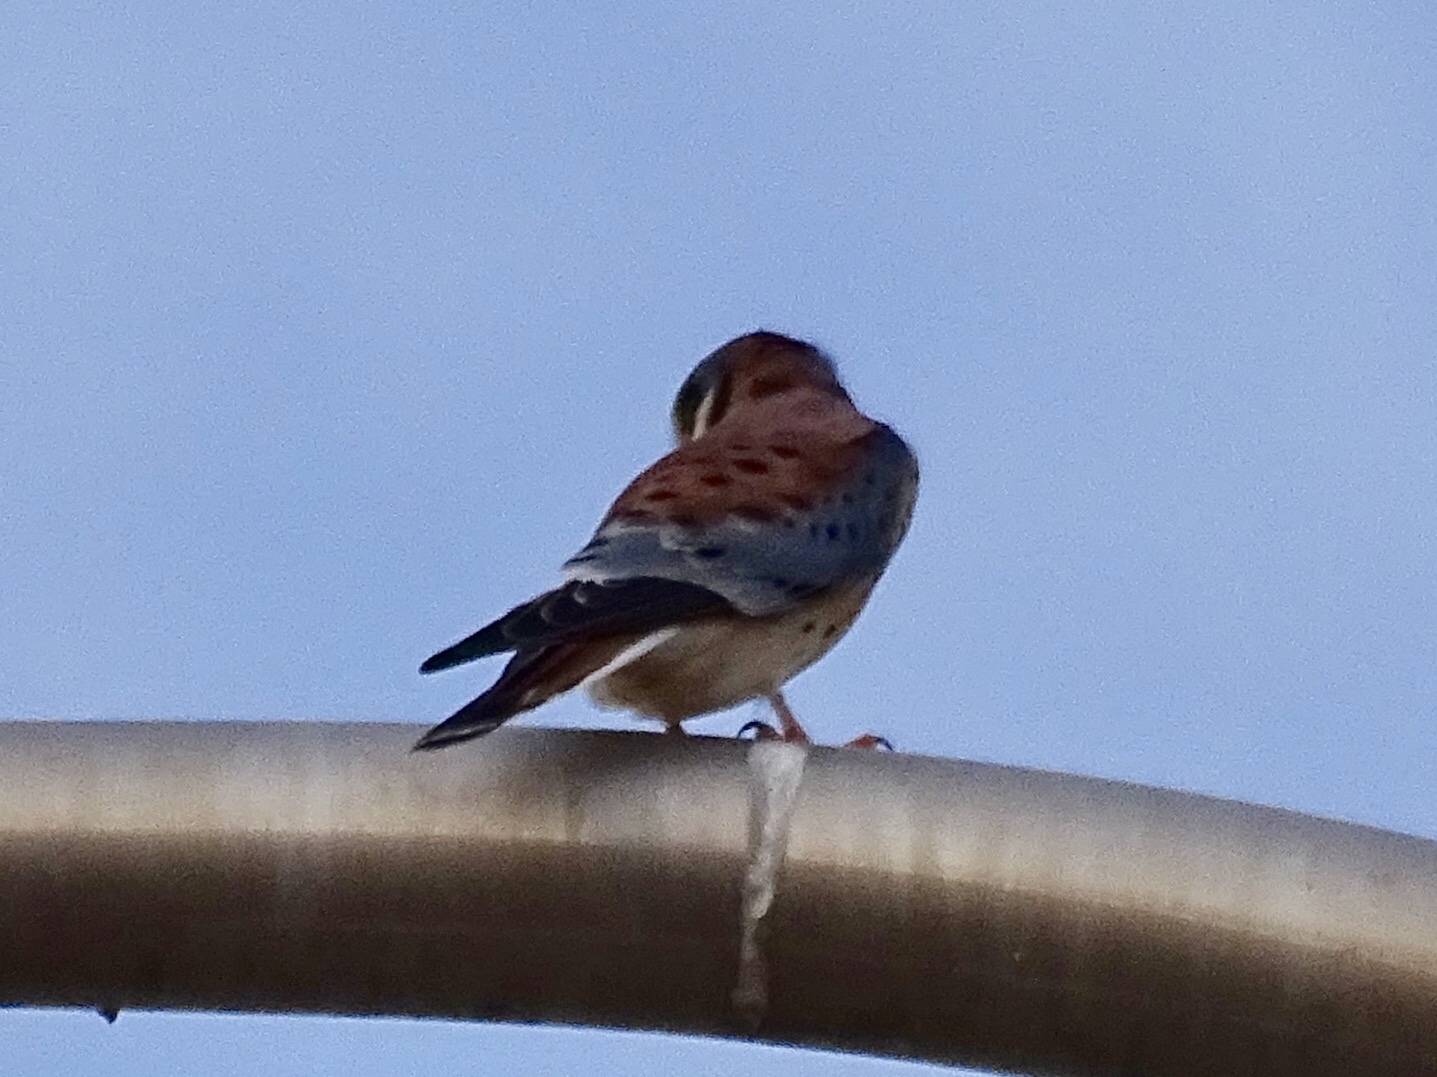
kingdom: Animalia
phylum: Chordata
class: Aves
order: Falconiformes
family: Falconidae
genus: Falco
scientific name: Falco sparverius
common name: American kestrel
